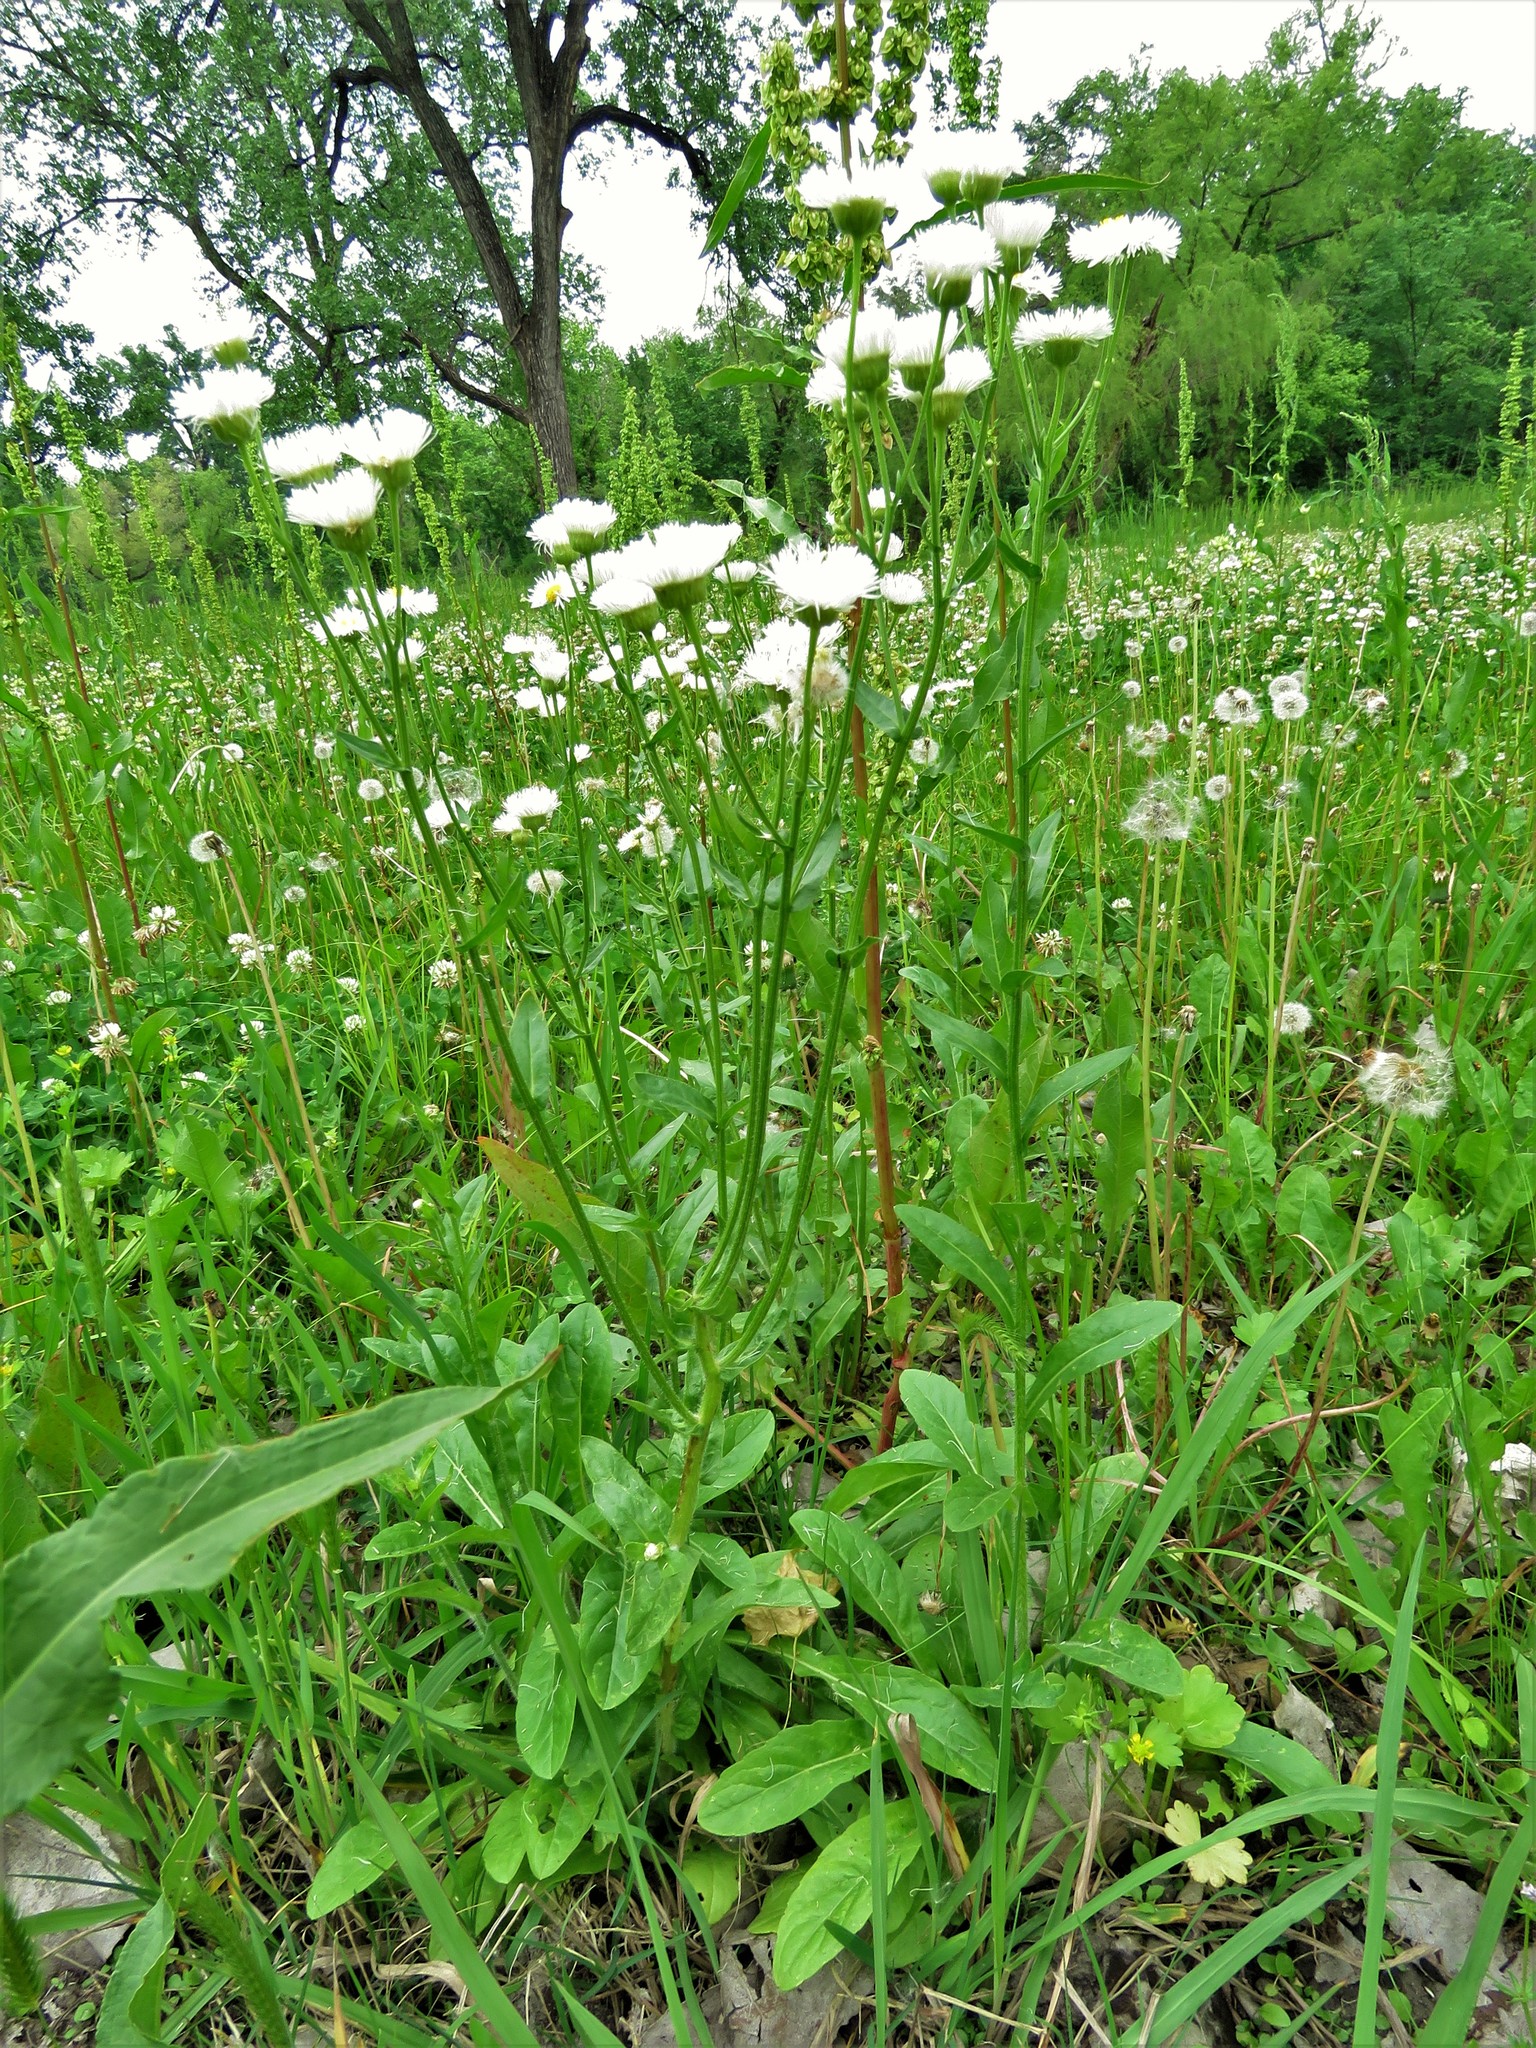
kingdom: Plantae
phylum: Tracheophyta
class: Magnoliopsida
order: Asterales
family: Asteraceae
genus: Erigeron
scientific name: Erigeron philadelphicus
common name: Robin's-plantain
